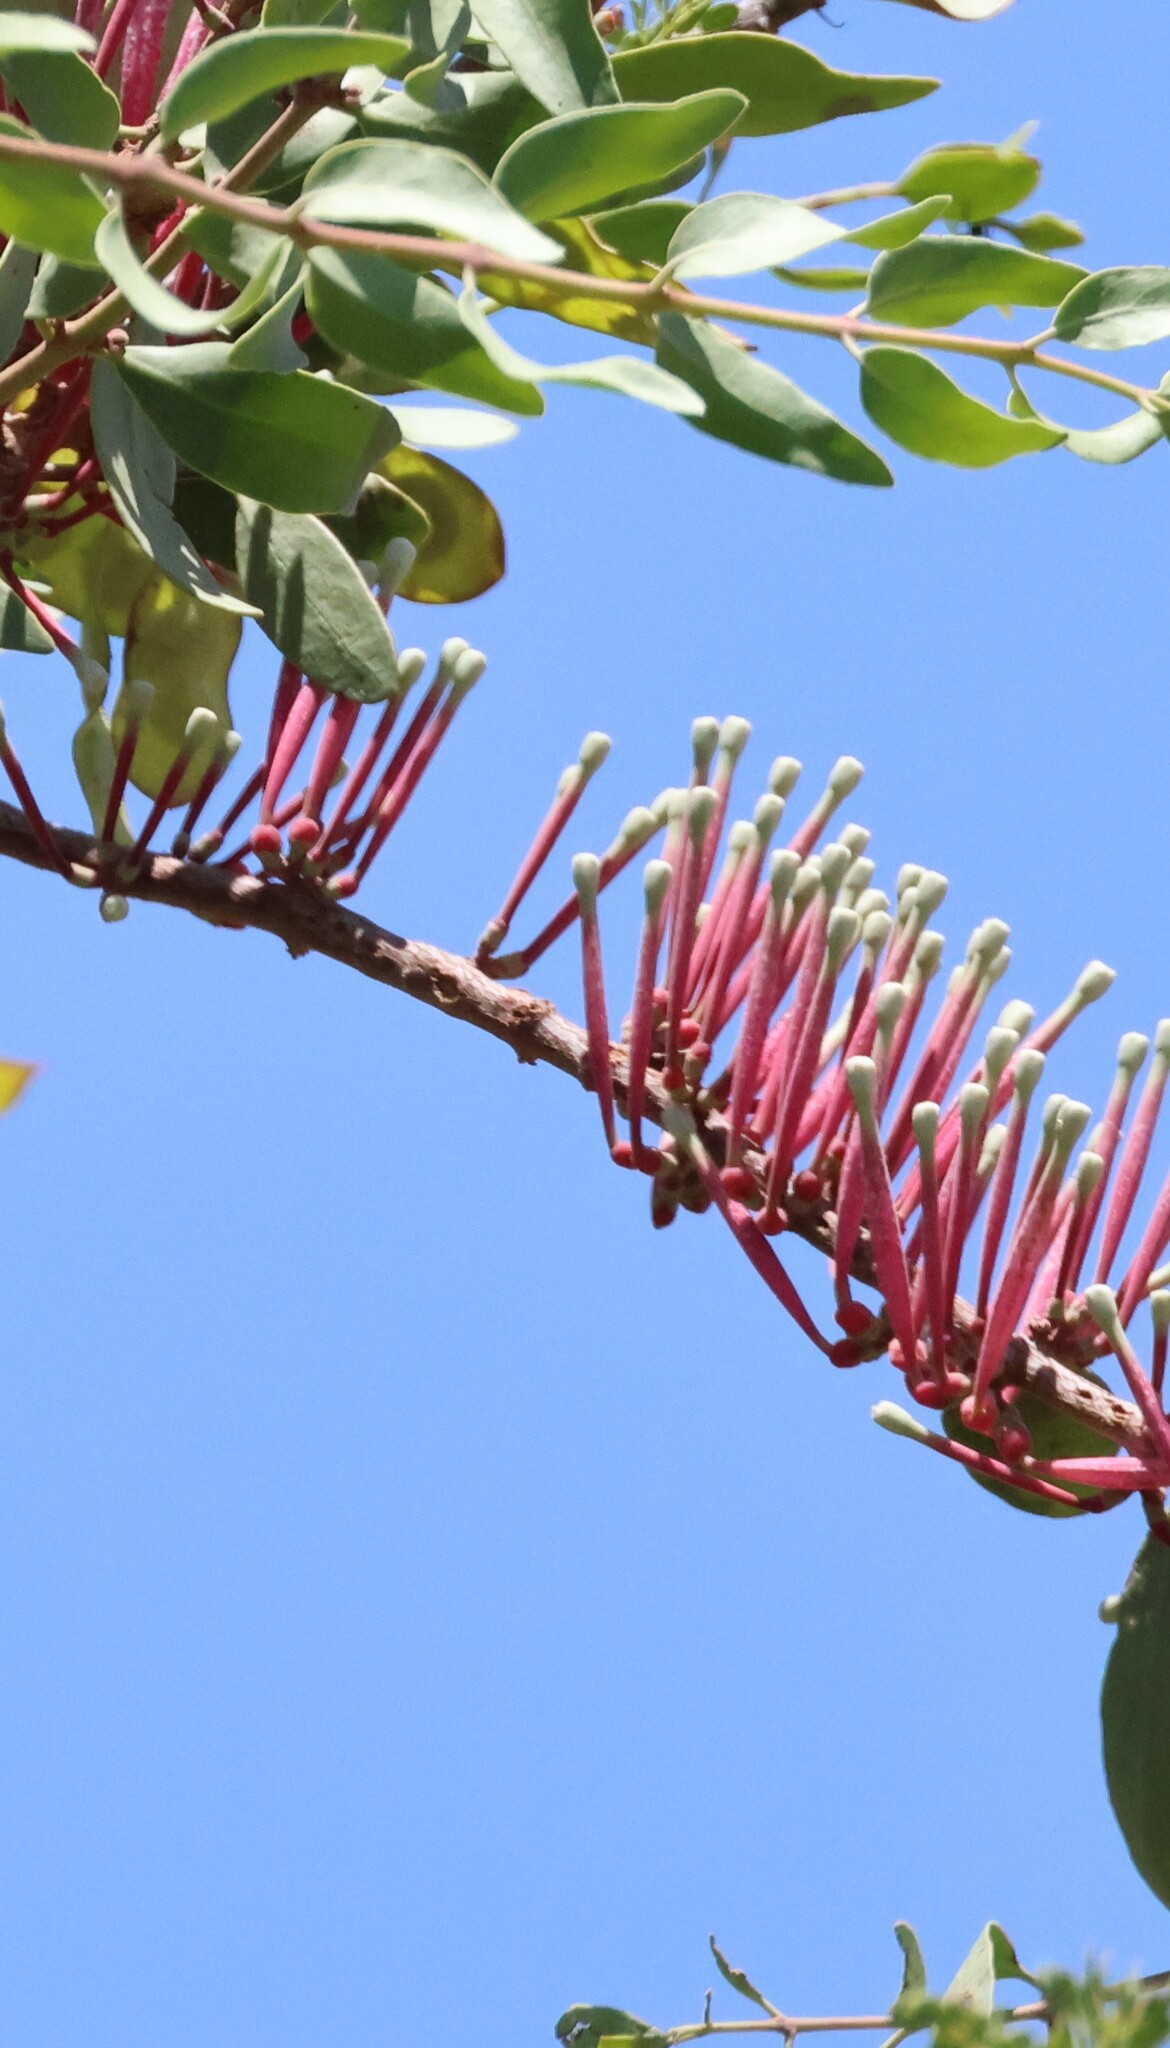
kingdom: Plantae
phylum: Tracheophyta
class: Magnoliopsida
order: Santalales
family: Loranthaceae
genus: Tapinanthus
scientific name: Tapinanthus oleifolius
